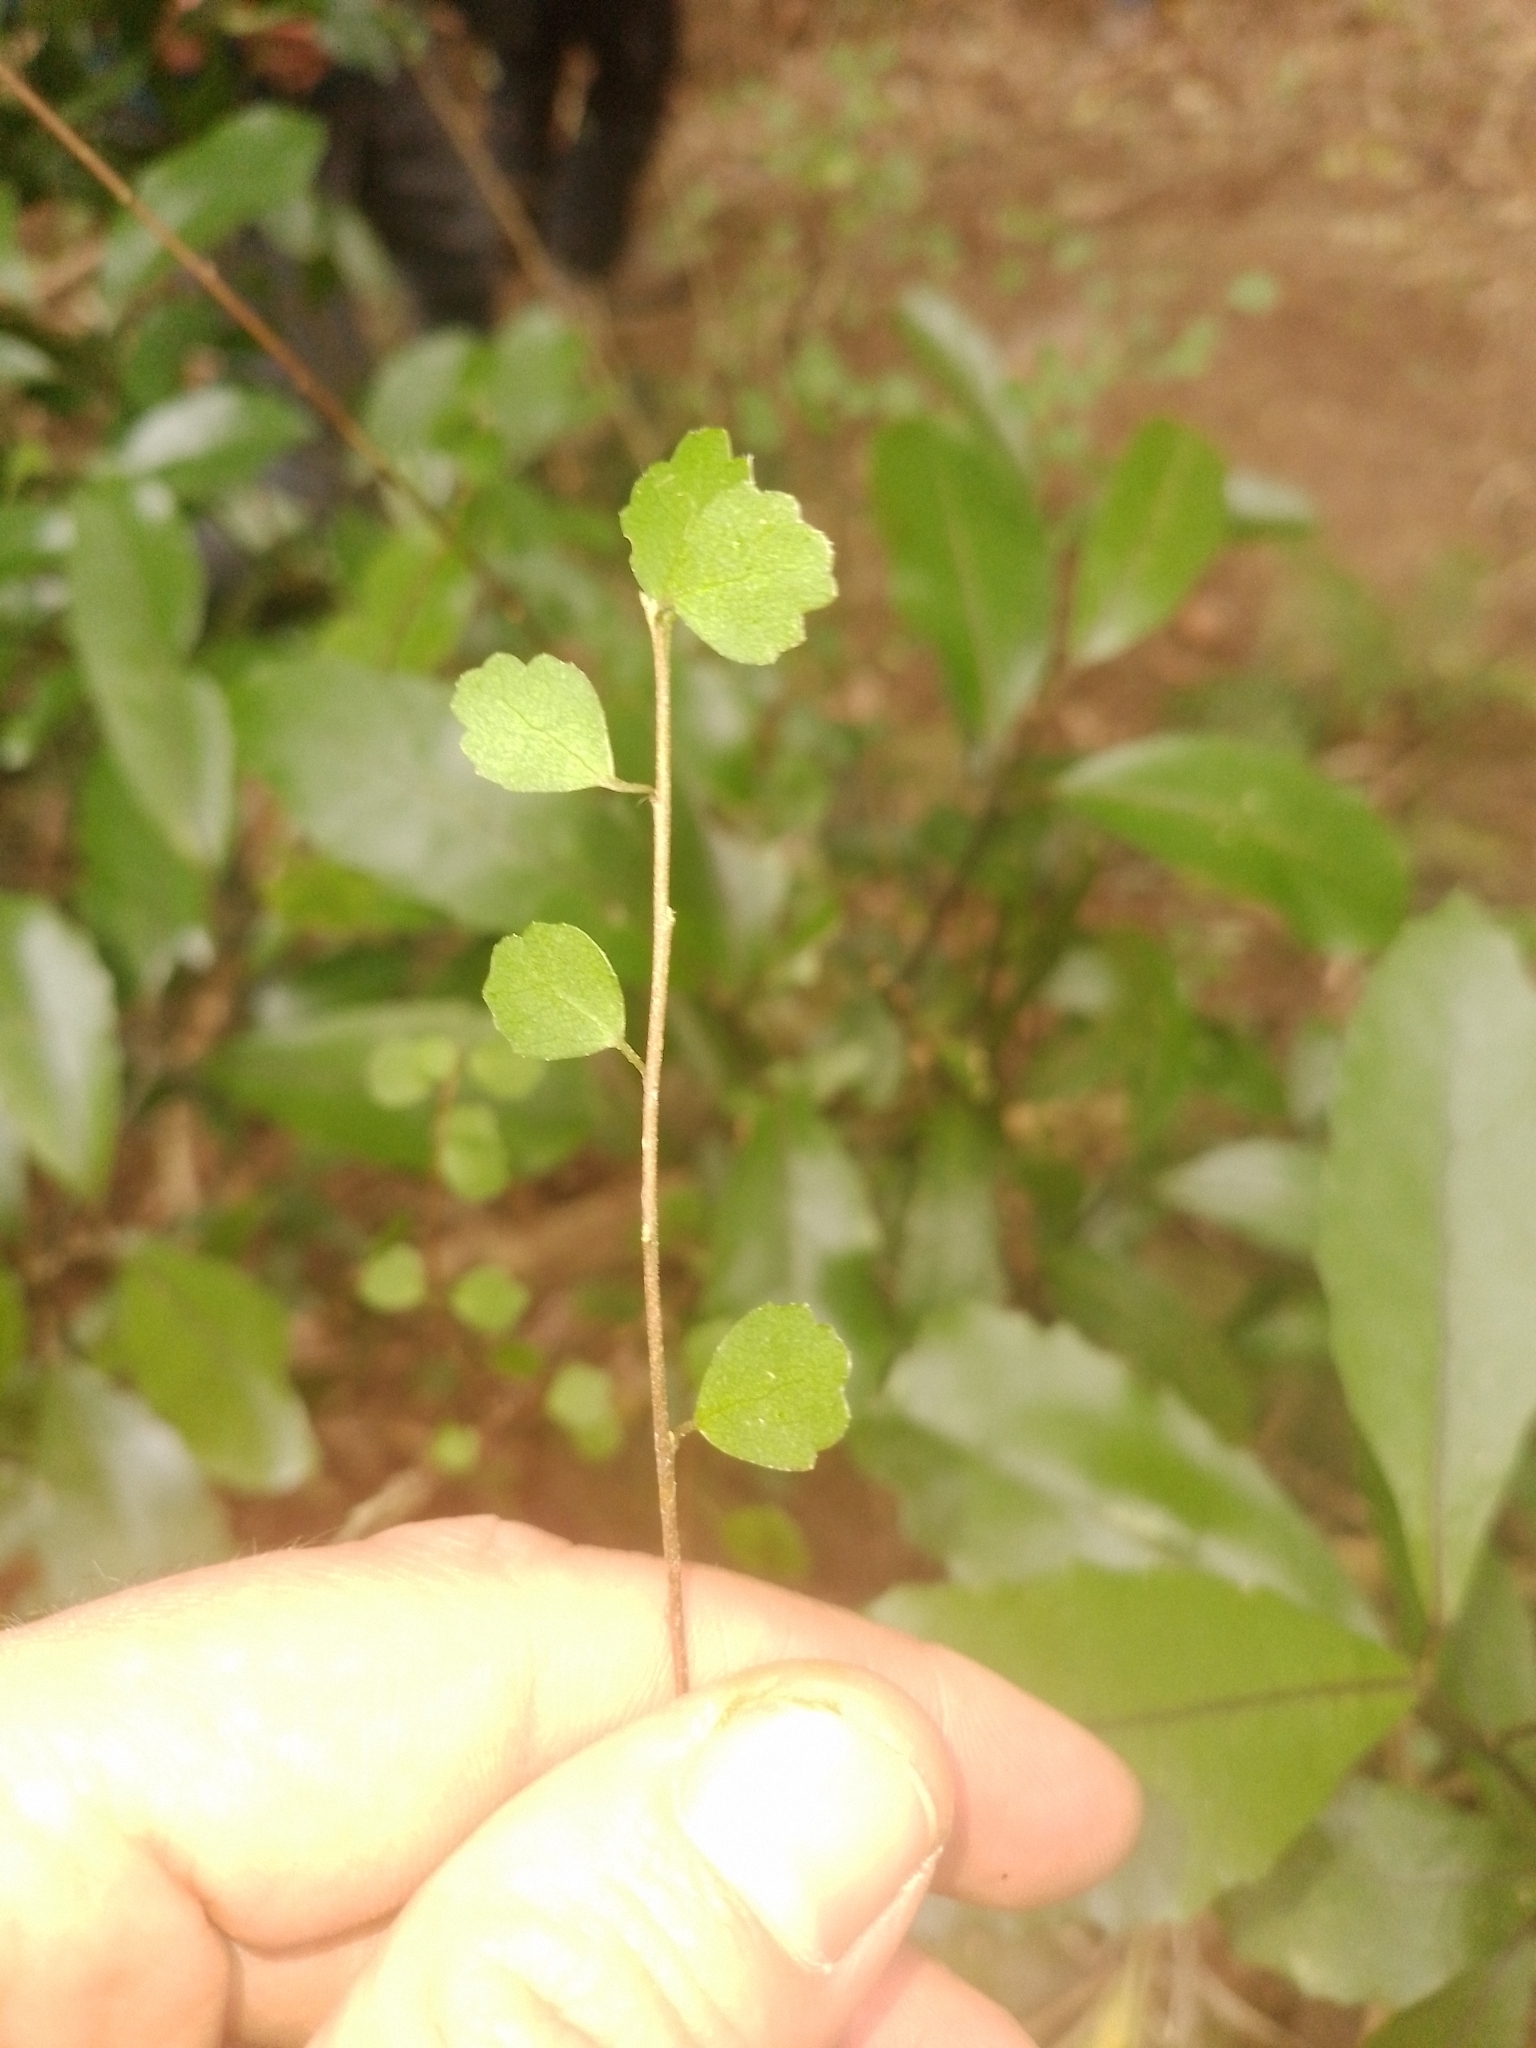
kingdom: Plantae
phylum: Tracheophyta
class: Magnoliopsida
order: Malvales
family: Malvaceae
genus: Hoheria
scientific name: Hoheria angustifolia
